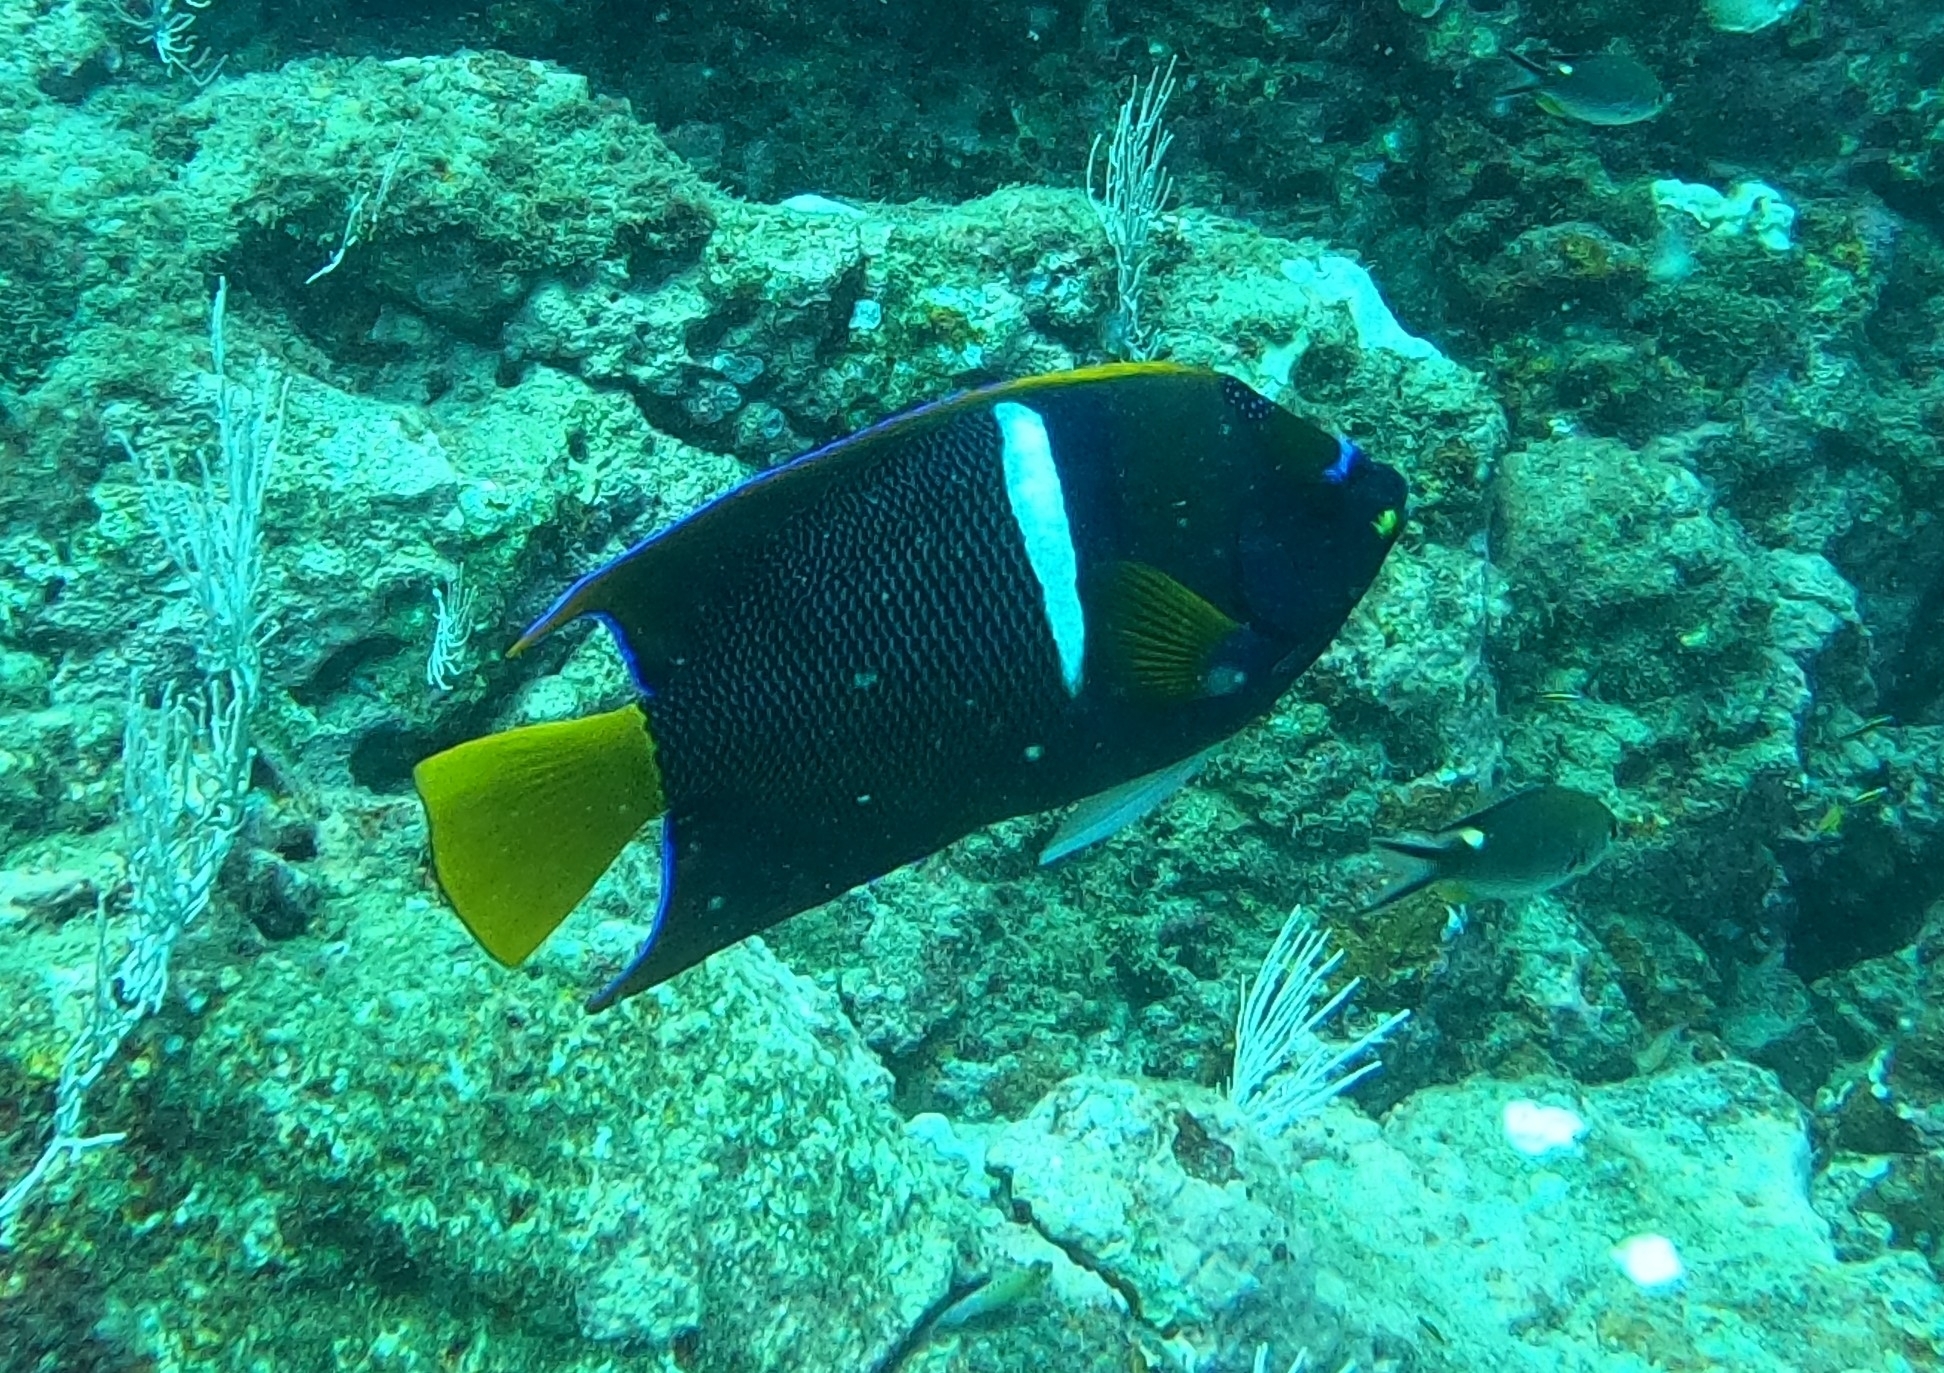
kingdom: Animalia
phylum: Chordata
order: Perciformes
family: Pomacanthidae
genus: Holacanthus
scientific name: Holacanthus passer
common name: King angelfish
